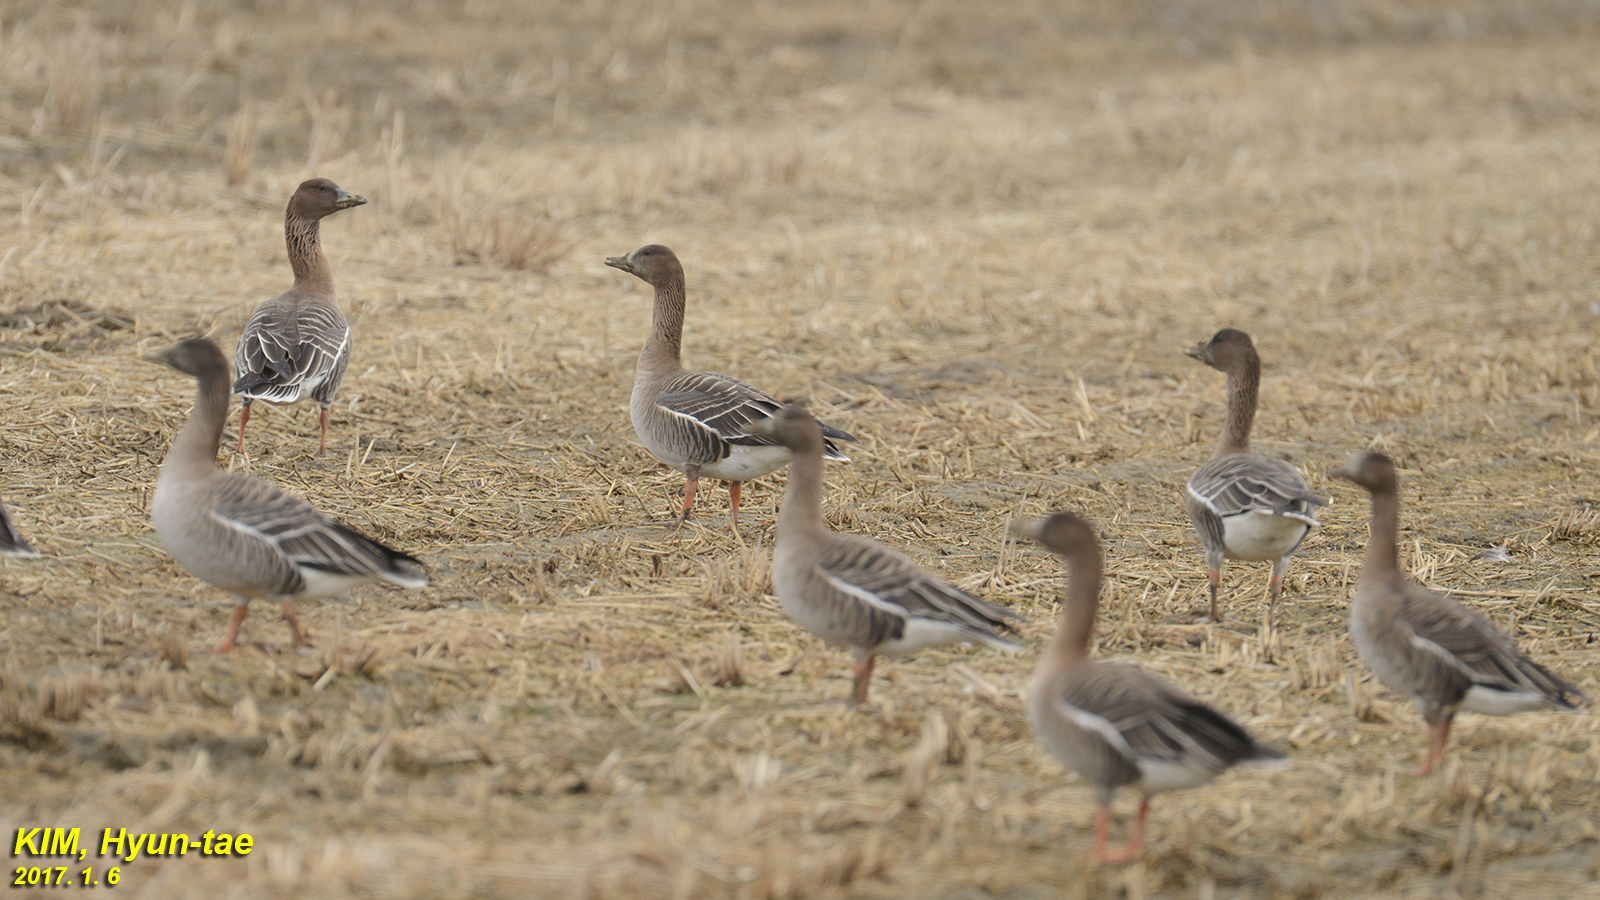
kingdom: Animalia
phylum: Chordata
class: Aves
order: Anseriformes
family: Anatidae
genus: Anser
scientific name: Anser fabalis
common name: Bean goose
